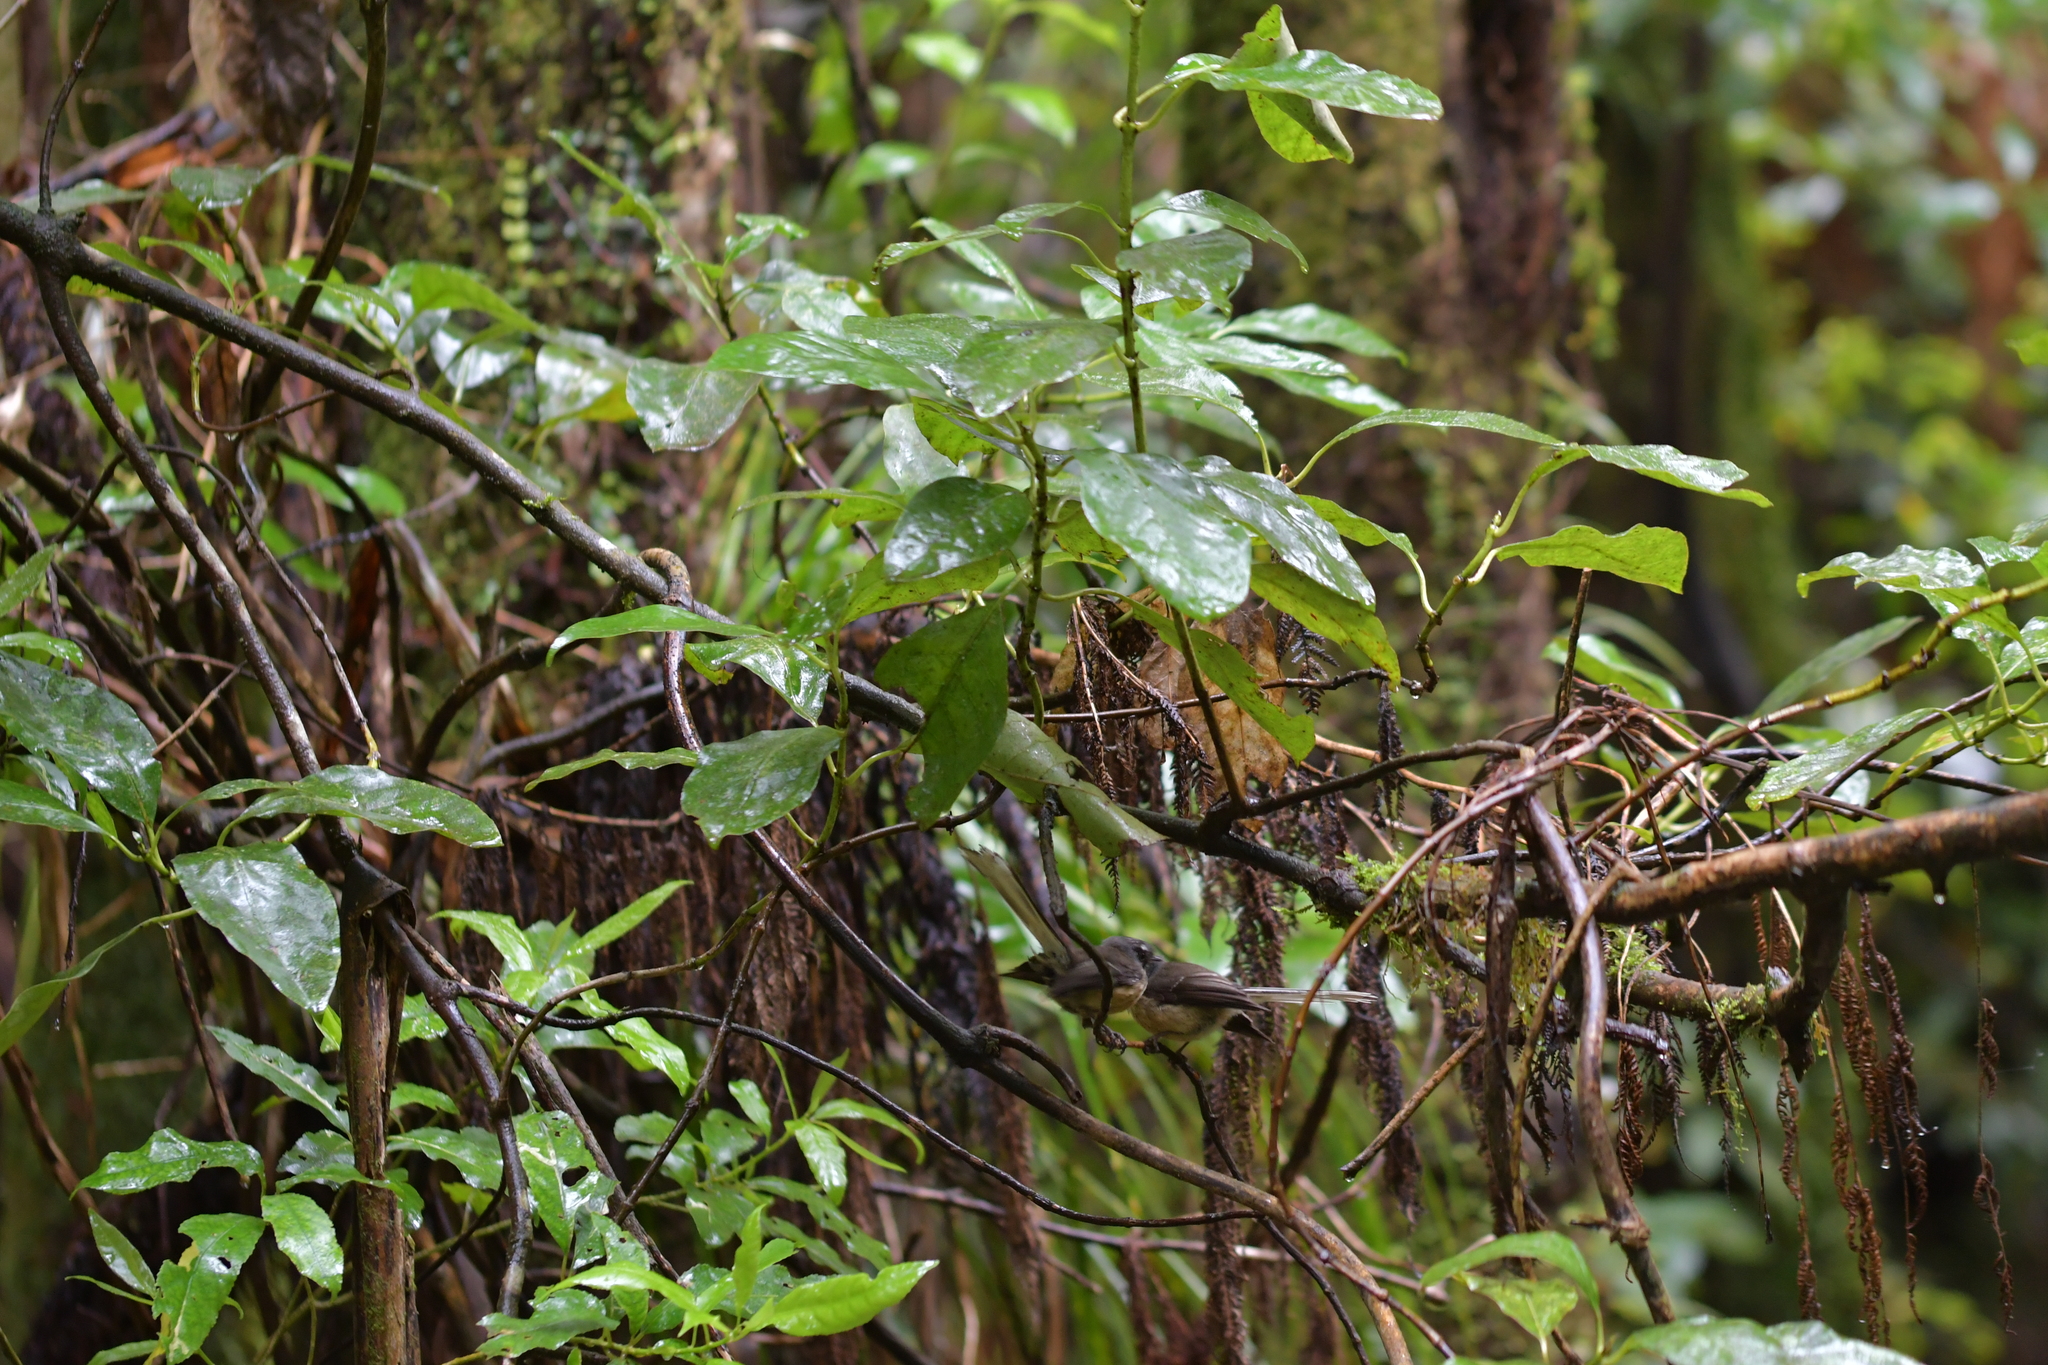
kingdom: Animalia
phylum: Chordata
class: Aves
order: Passeriformes
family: Rhipiduridae
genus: Rhipidura
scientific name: Rhipidura fuliginosa
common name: New zealand fantail
